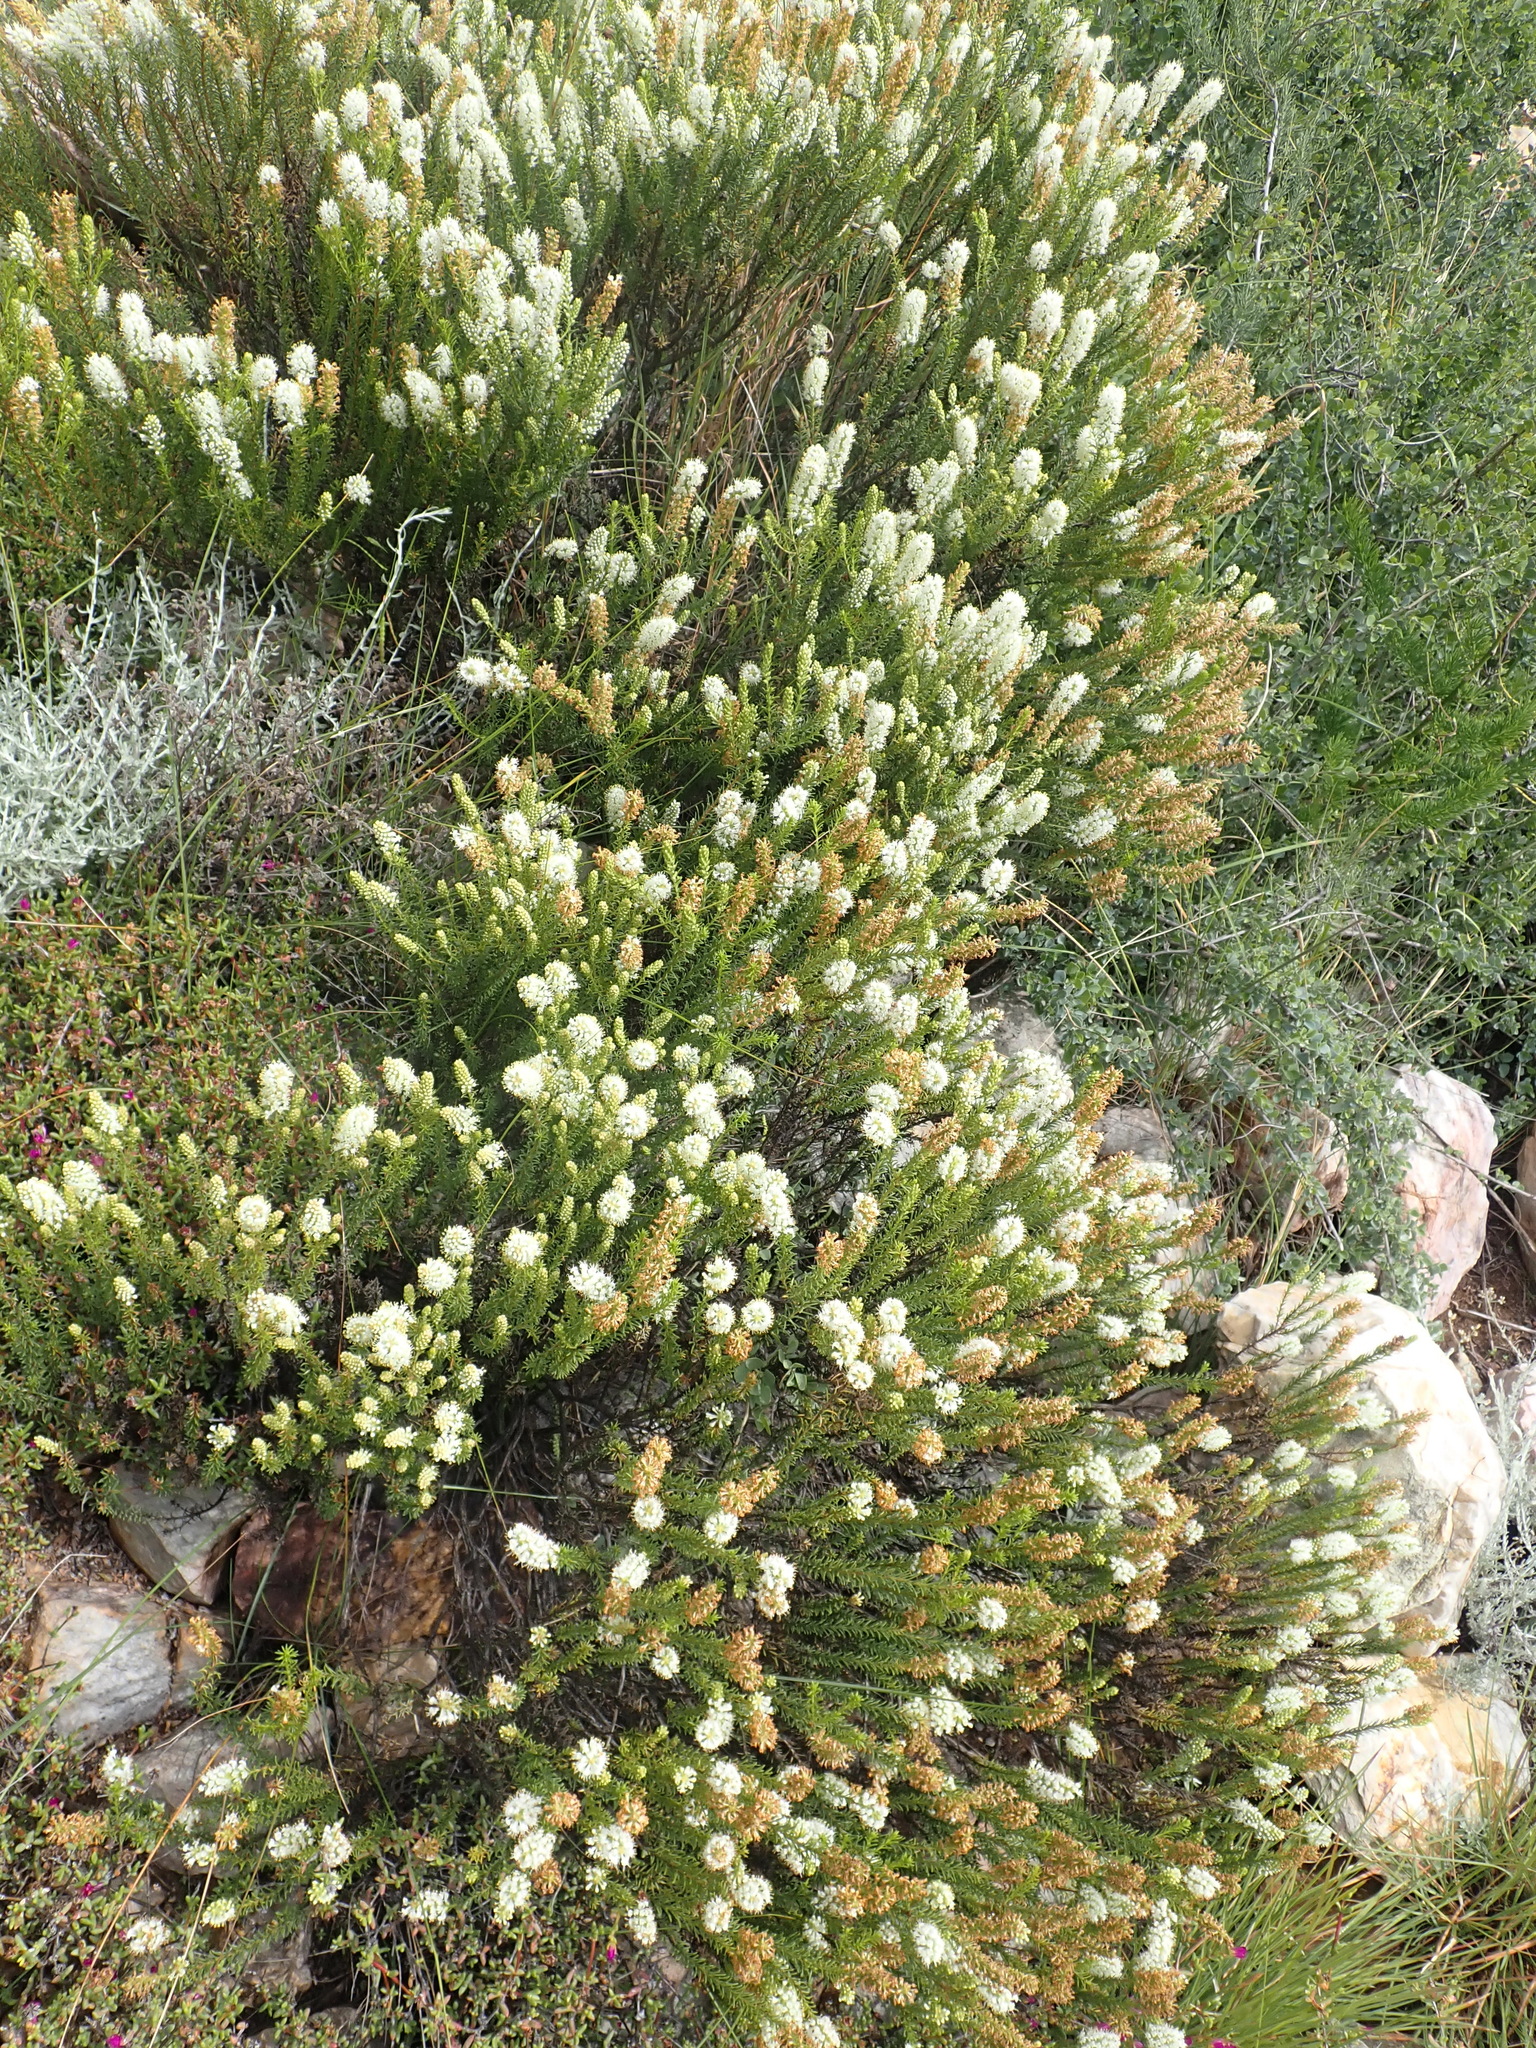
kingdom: Plantae
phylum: Tracheophyta
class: Magnoliopsida
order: Lamiales
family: Scrophulariaceae
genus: Selago
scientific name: Selago eckloniana
